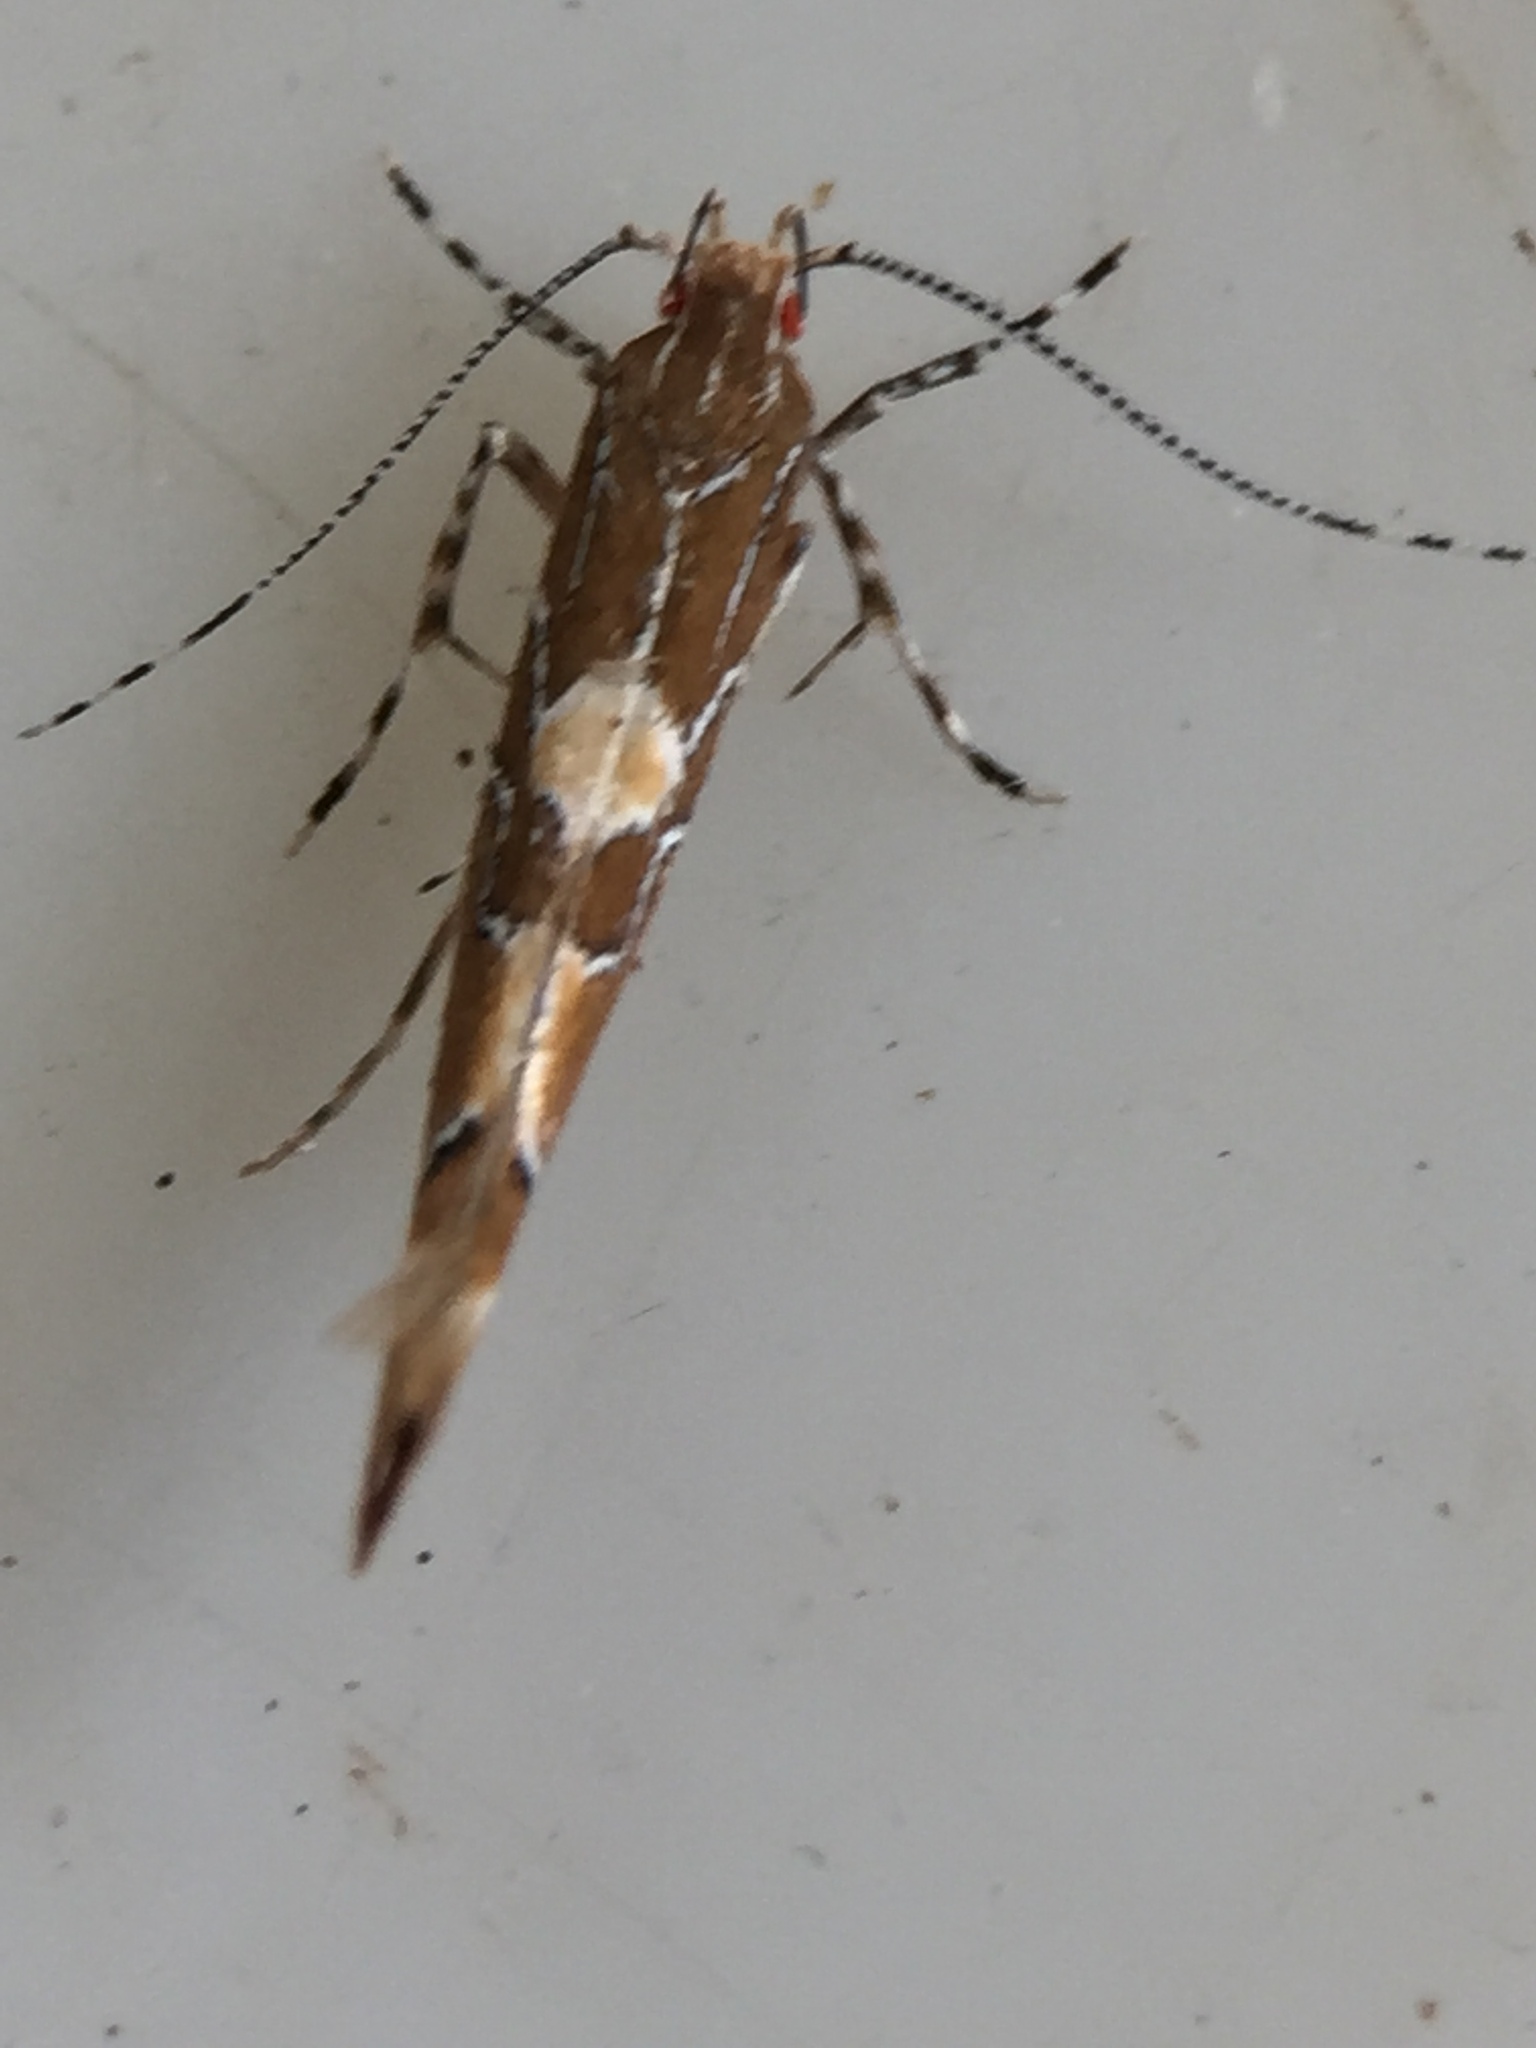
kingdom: Animalia
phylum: Arthropoda
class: Insecta
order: Lepidoptera
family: Cosmopterigidae
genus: Pyroderces
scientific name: Pyroderces apparitella
